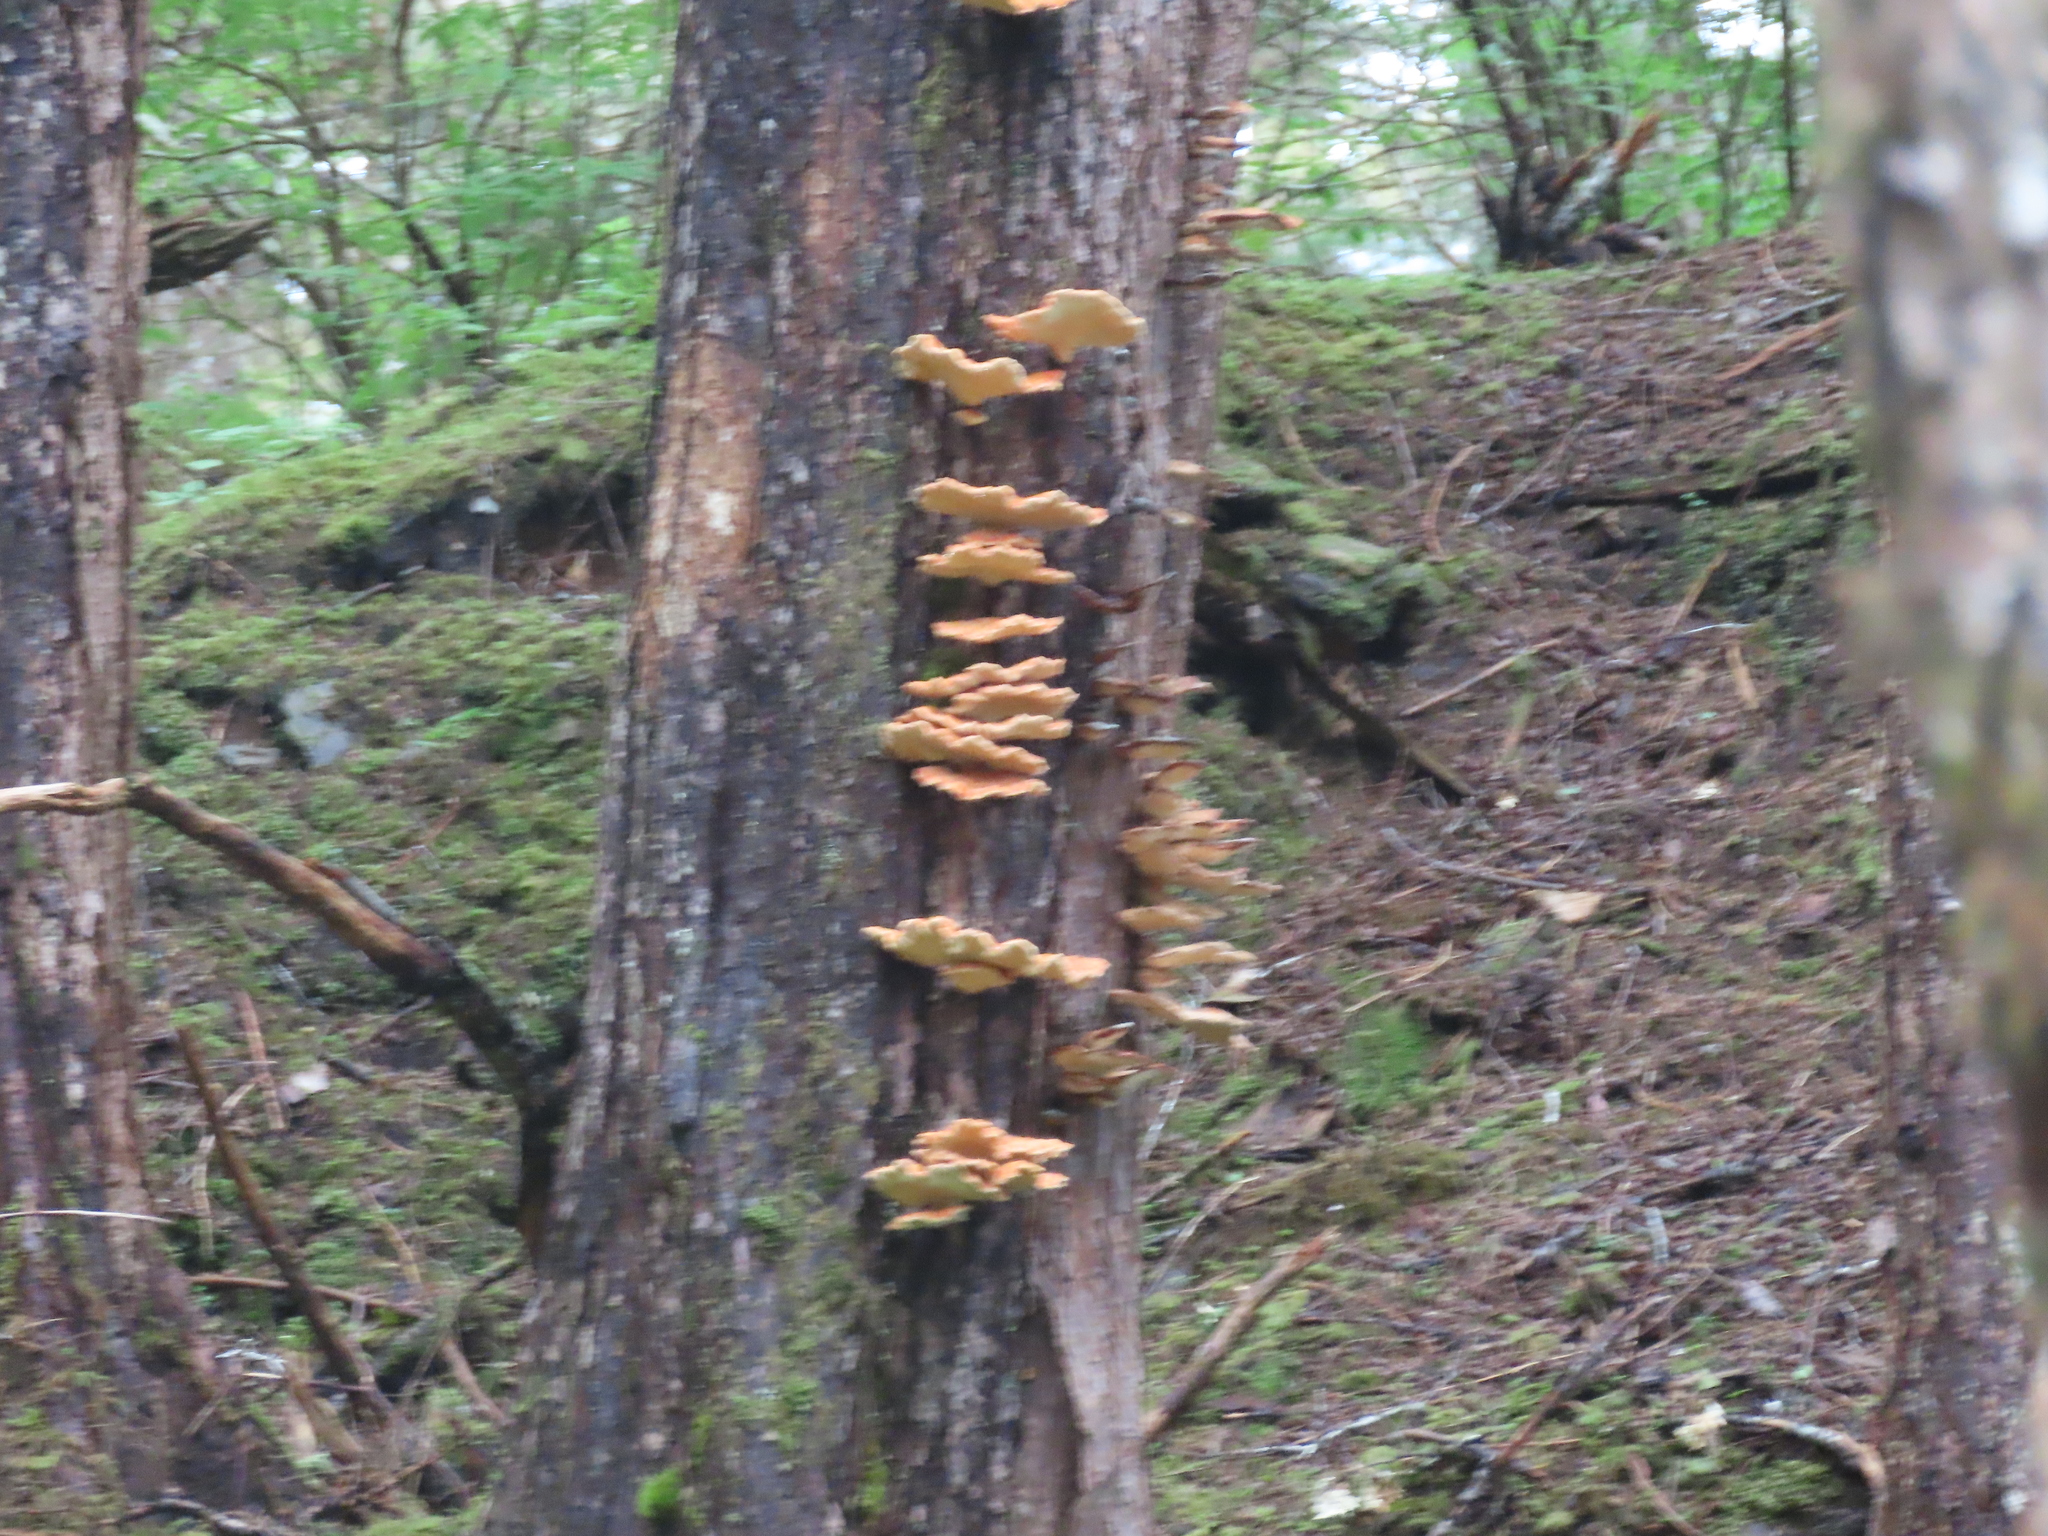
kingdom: Fungi
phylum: Basidiomycota
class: Agaricomycetes
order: Polyporales
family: Laetiporaceae
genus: Laetiporus
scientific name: Laetiporus conifericola
